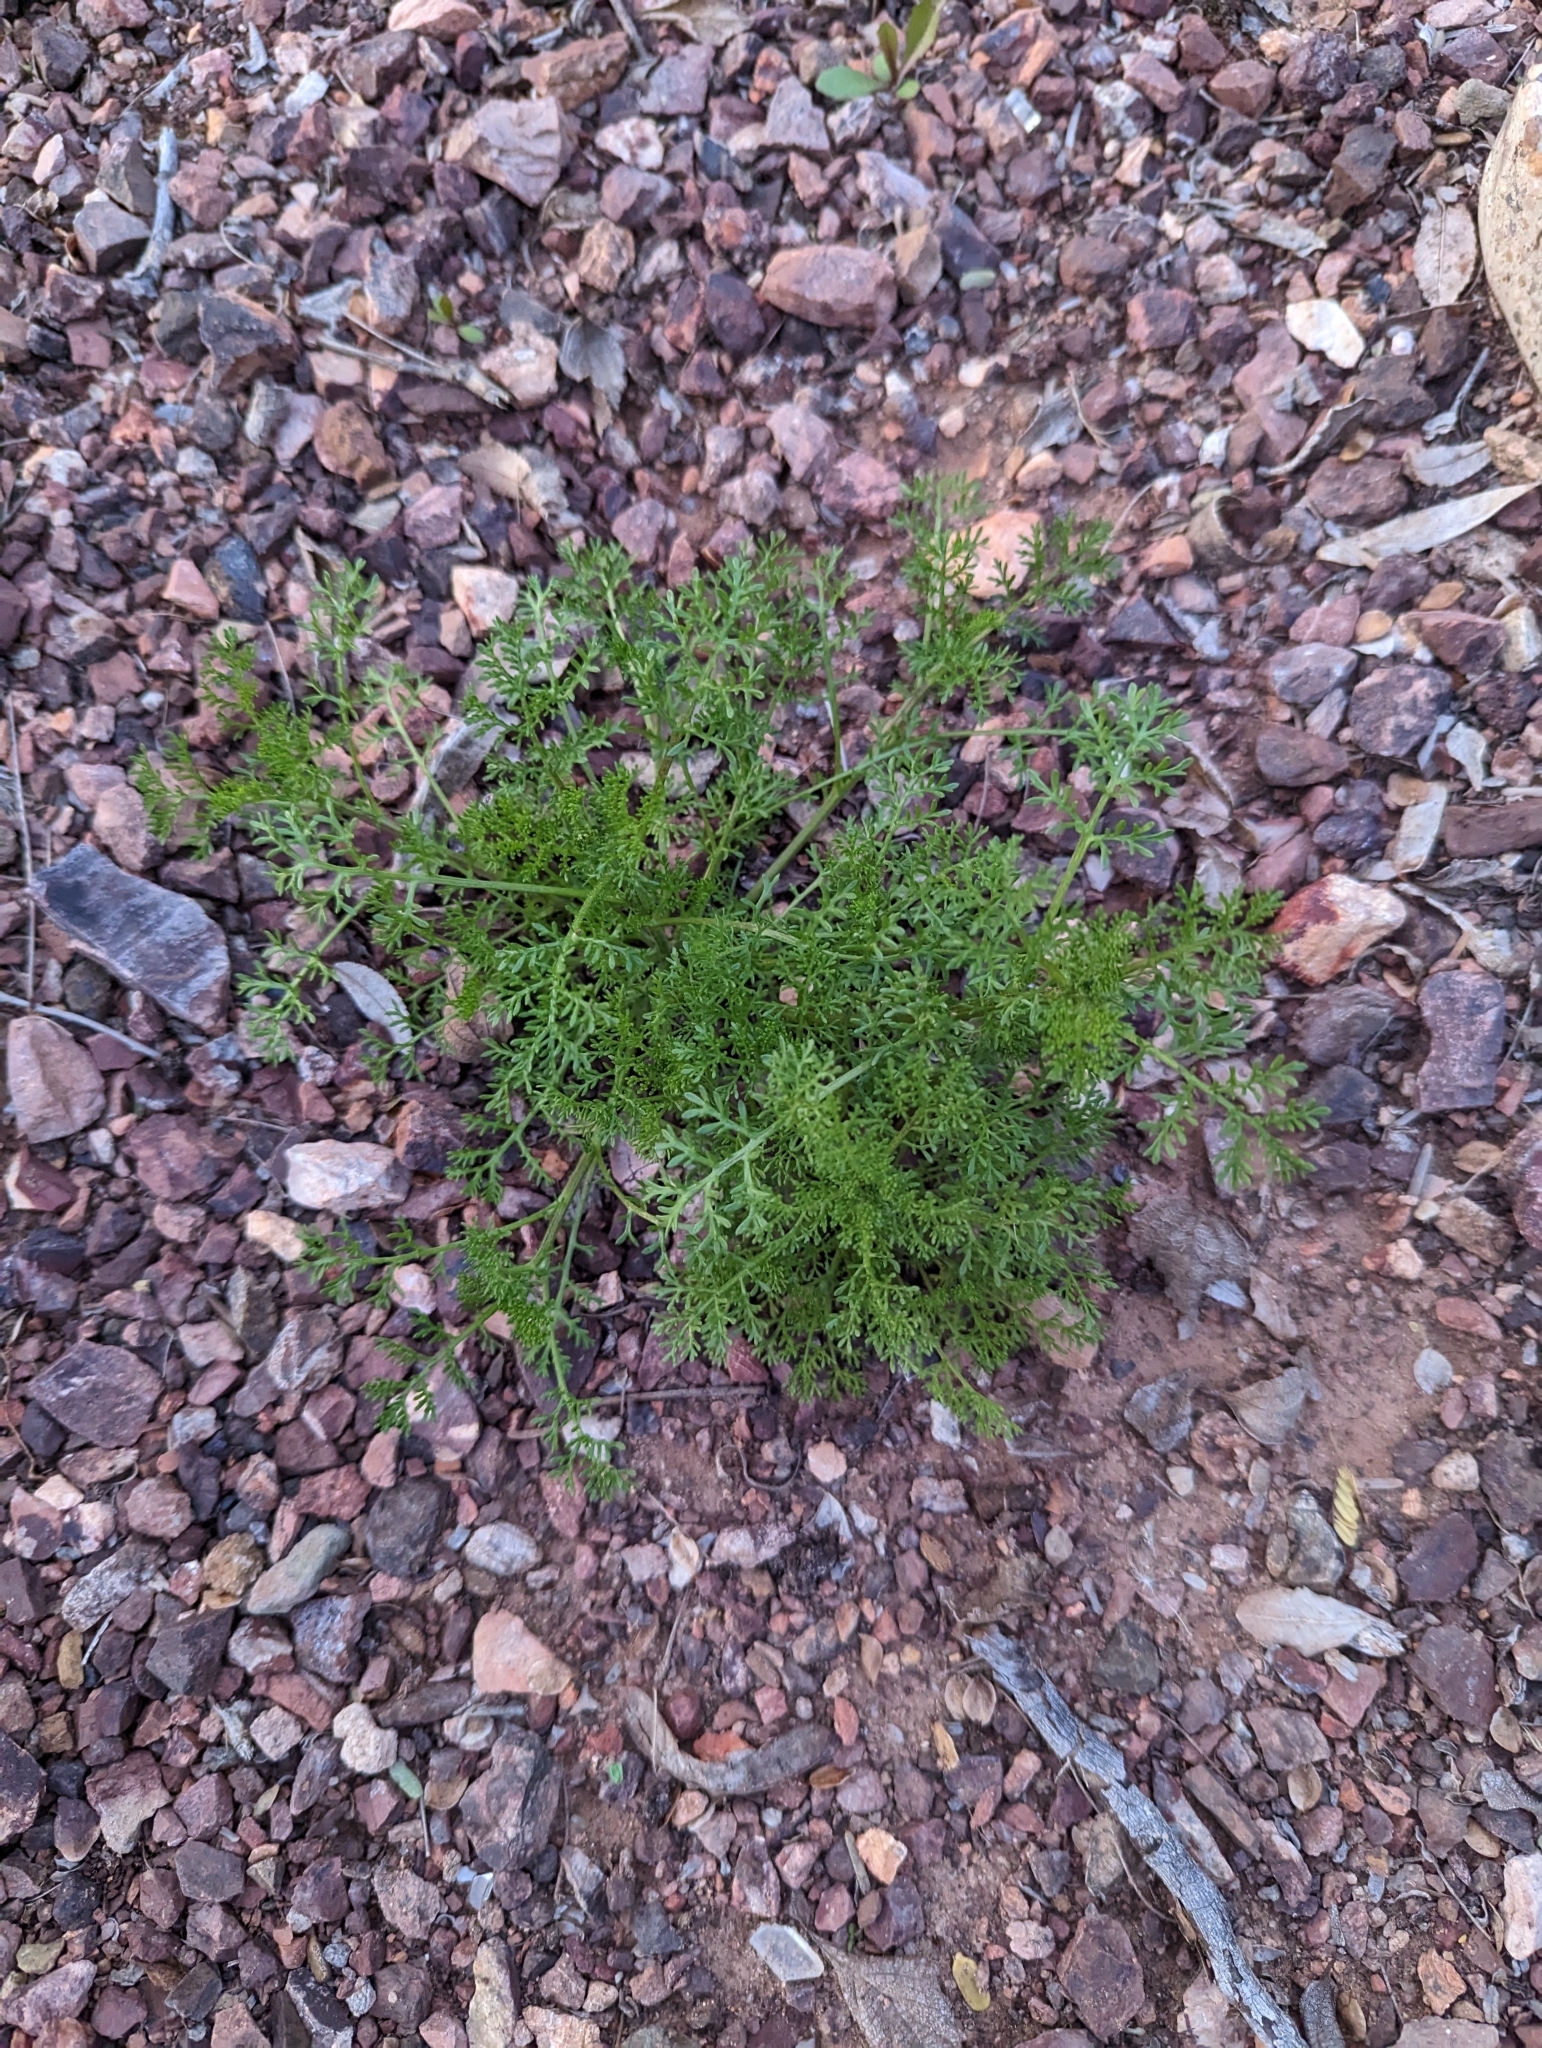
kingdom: Plantae
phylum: Tracheophyta
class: Magnoliopsida
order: Asterales
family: Asteraceae
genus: Oncosiphon
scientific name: Oncosiphon pilulifer
